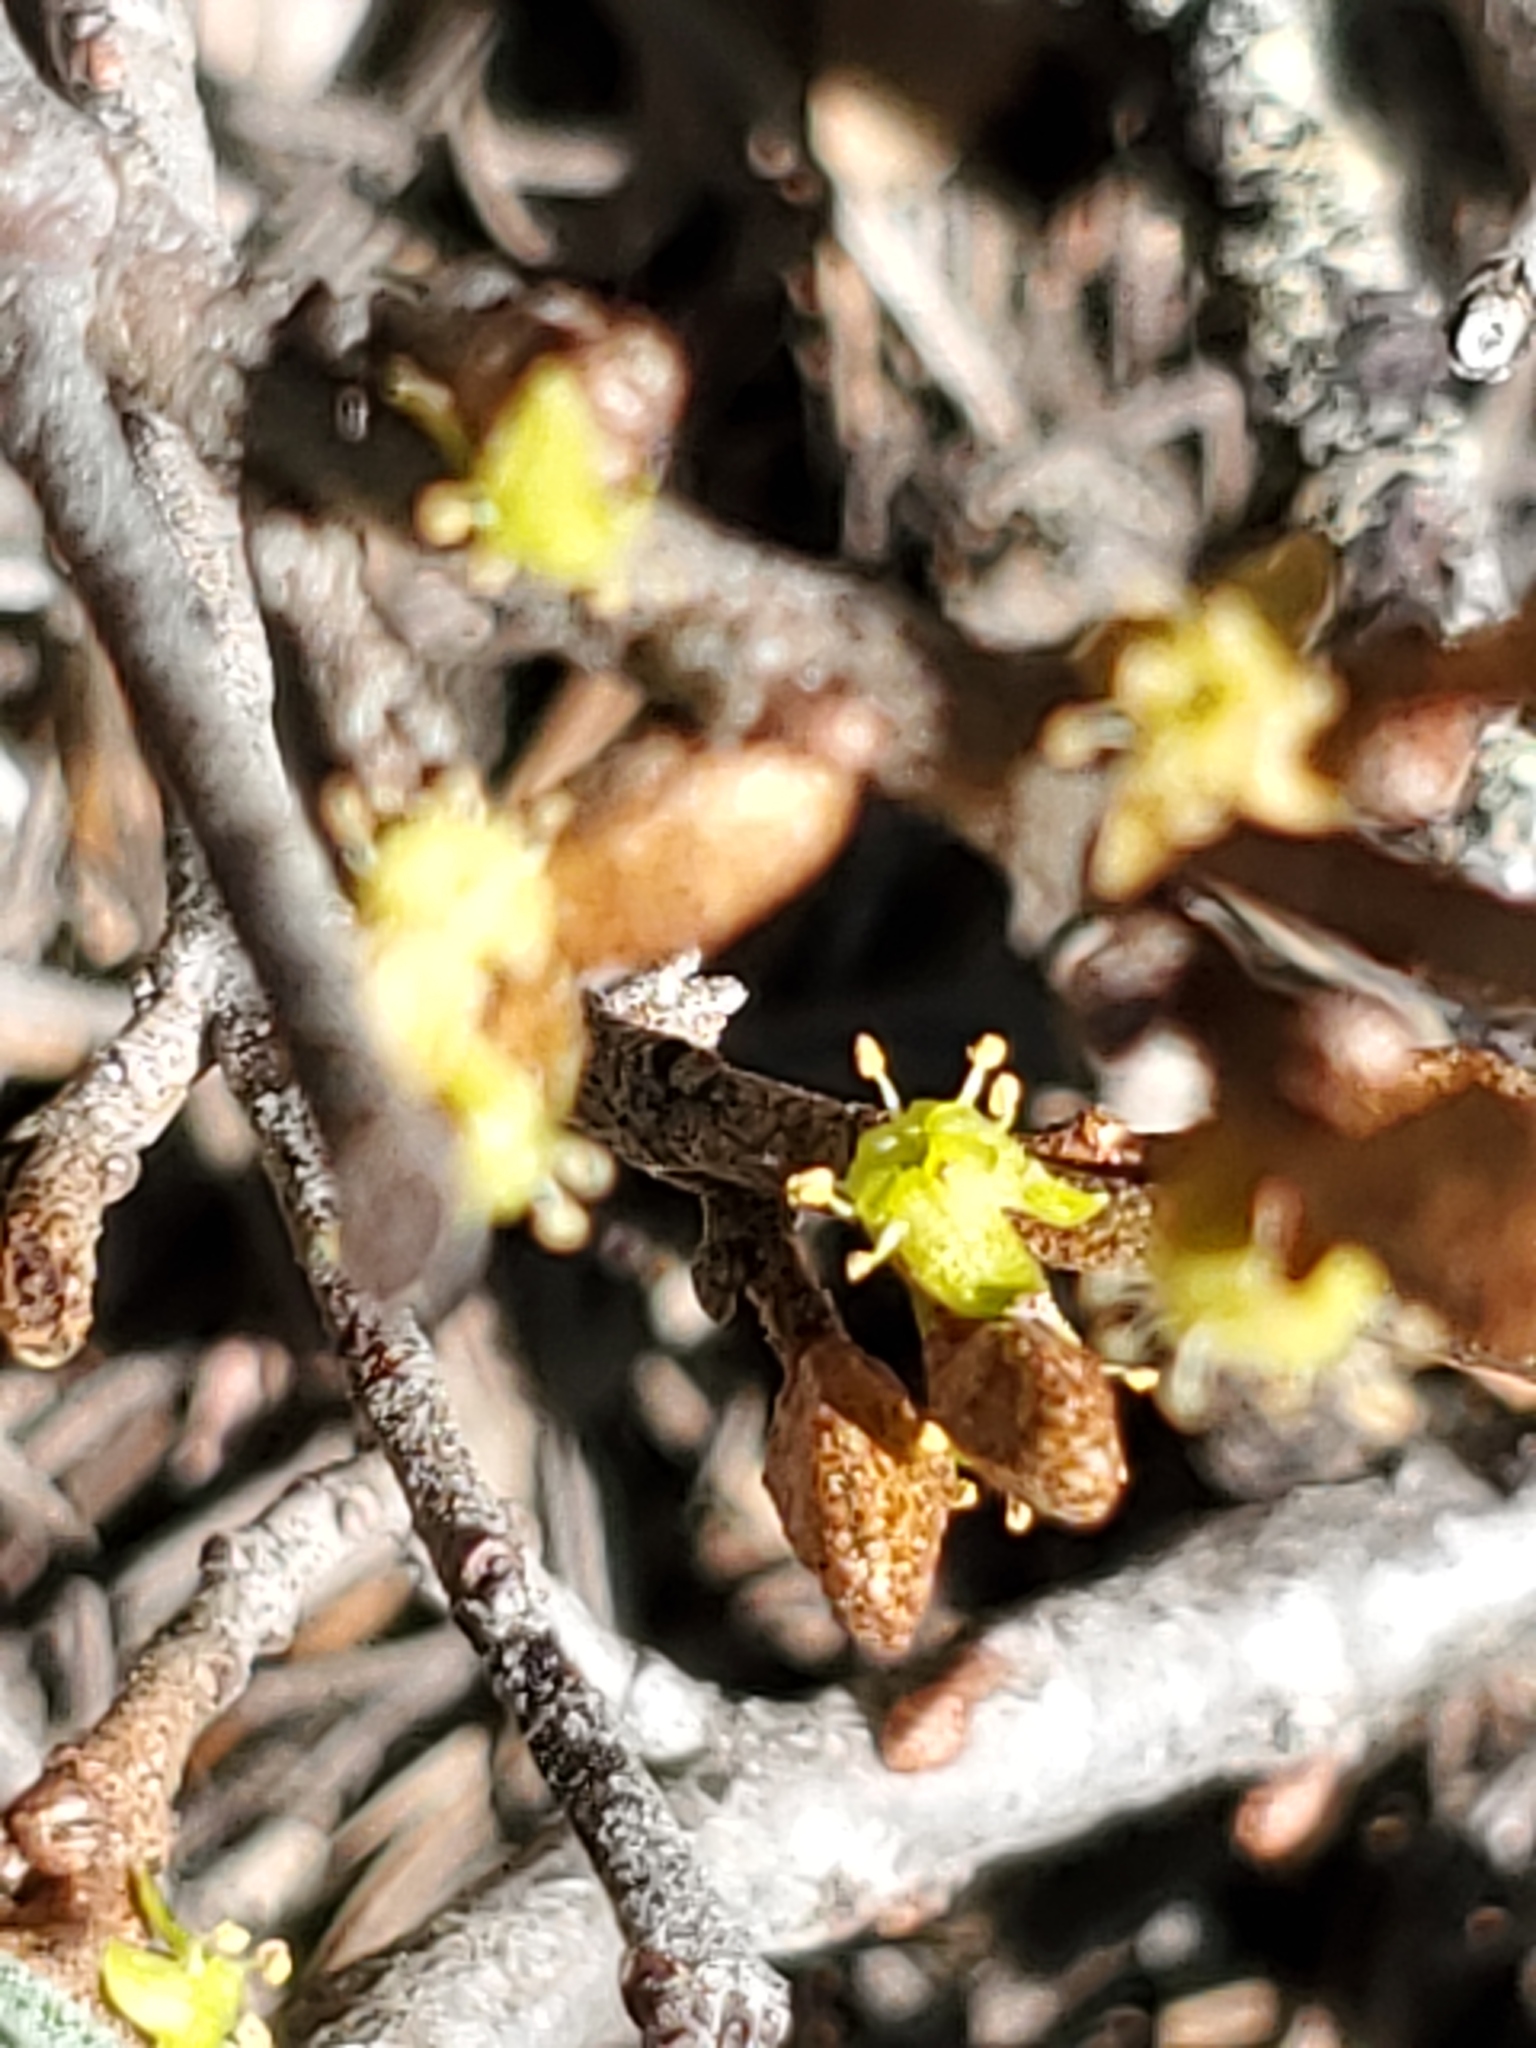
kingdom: Plantae
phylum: Tracheophyta
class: Magnoliopsida
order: Rosales
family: Elaeagnaceae
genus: Shepherdia
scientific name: Shepherdia canadensis
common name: Soapberry
